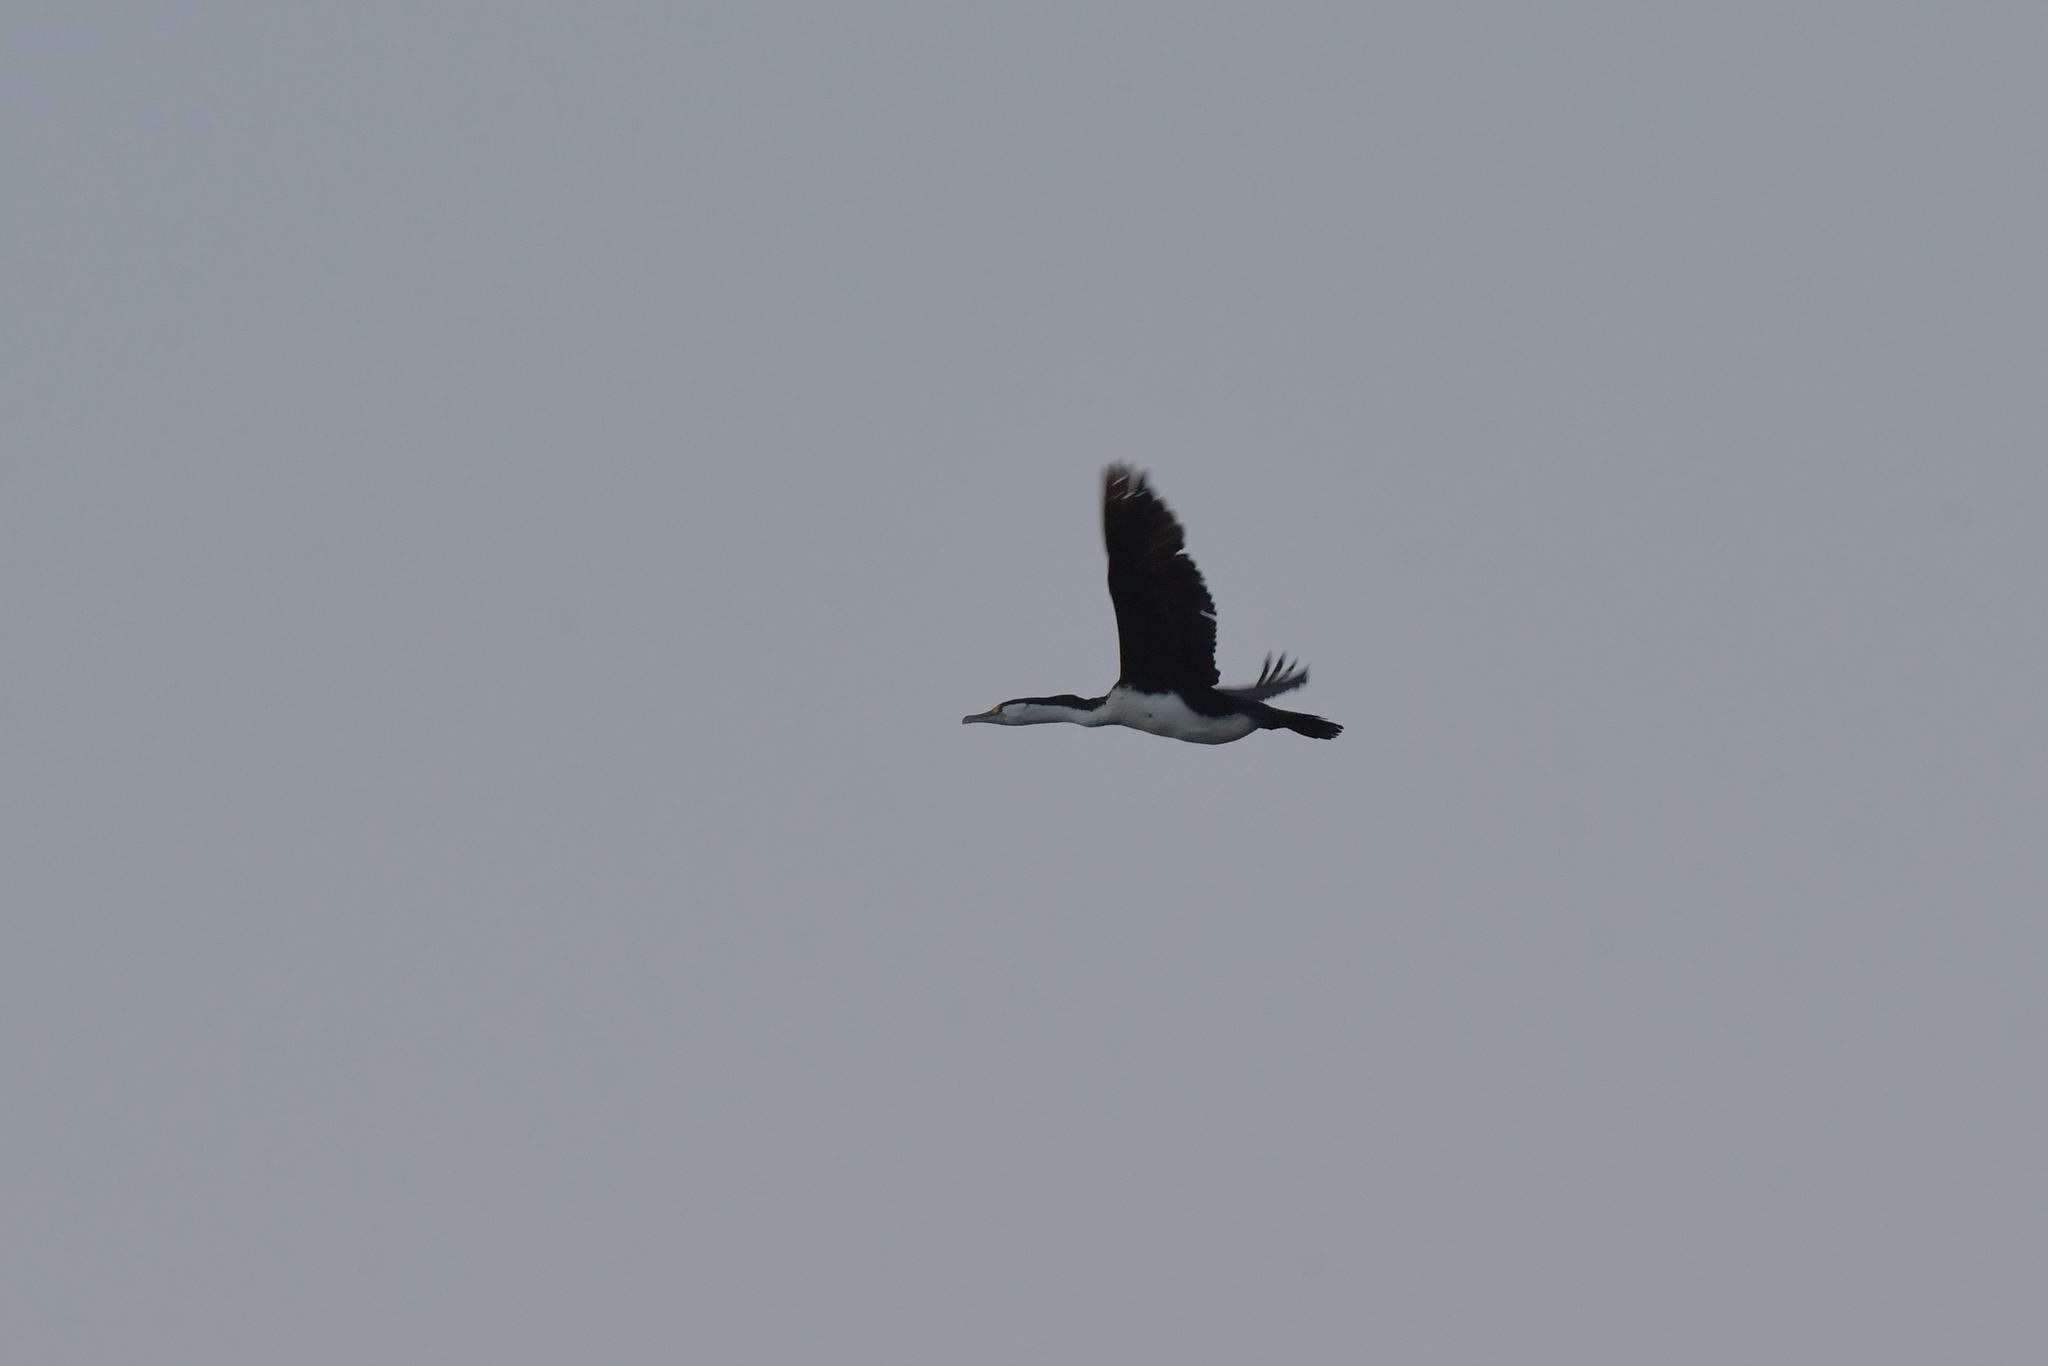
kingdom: Animalia
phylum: Chordata
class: Aves
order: Suliformes
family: Phalacrocoracidae
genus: Phalacrocorax
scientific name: Phalacrocorax varius
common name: Pied cormorant
